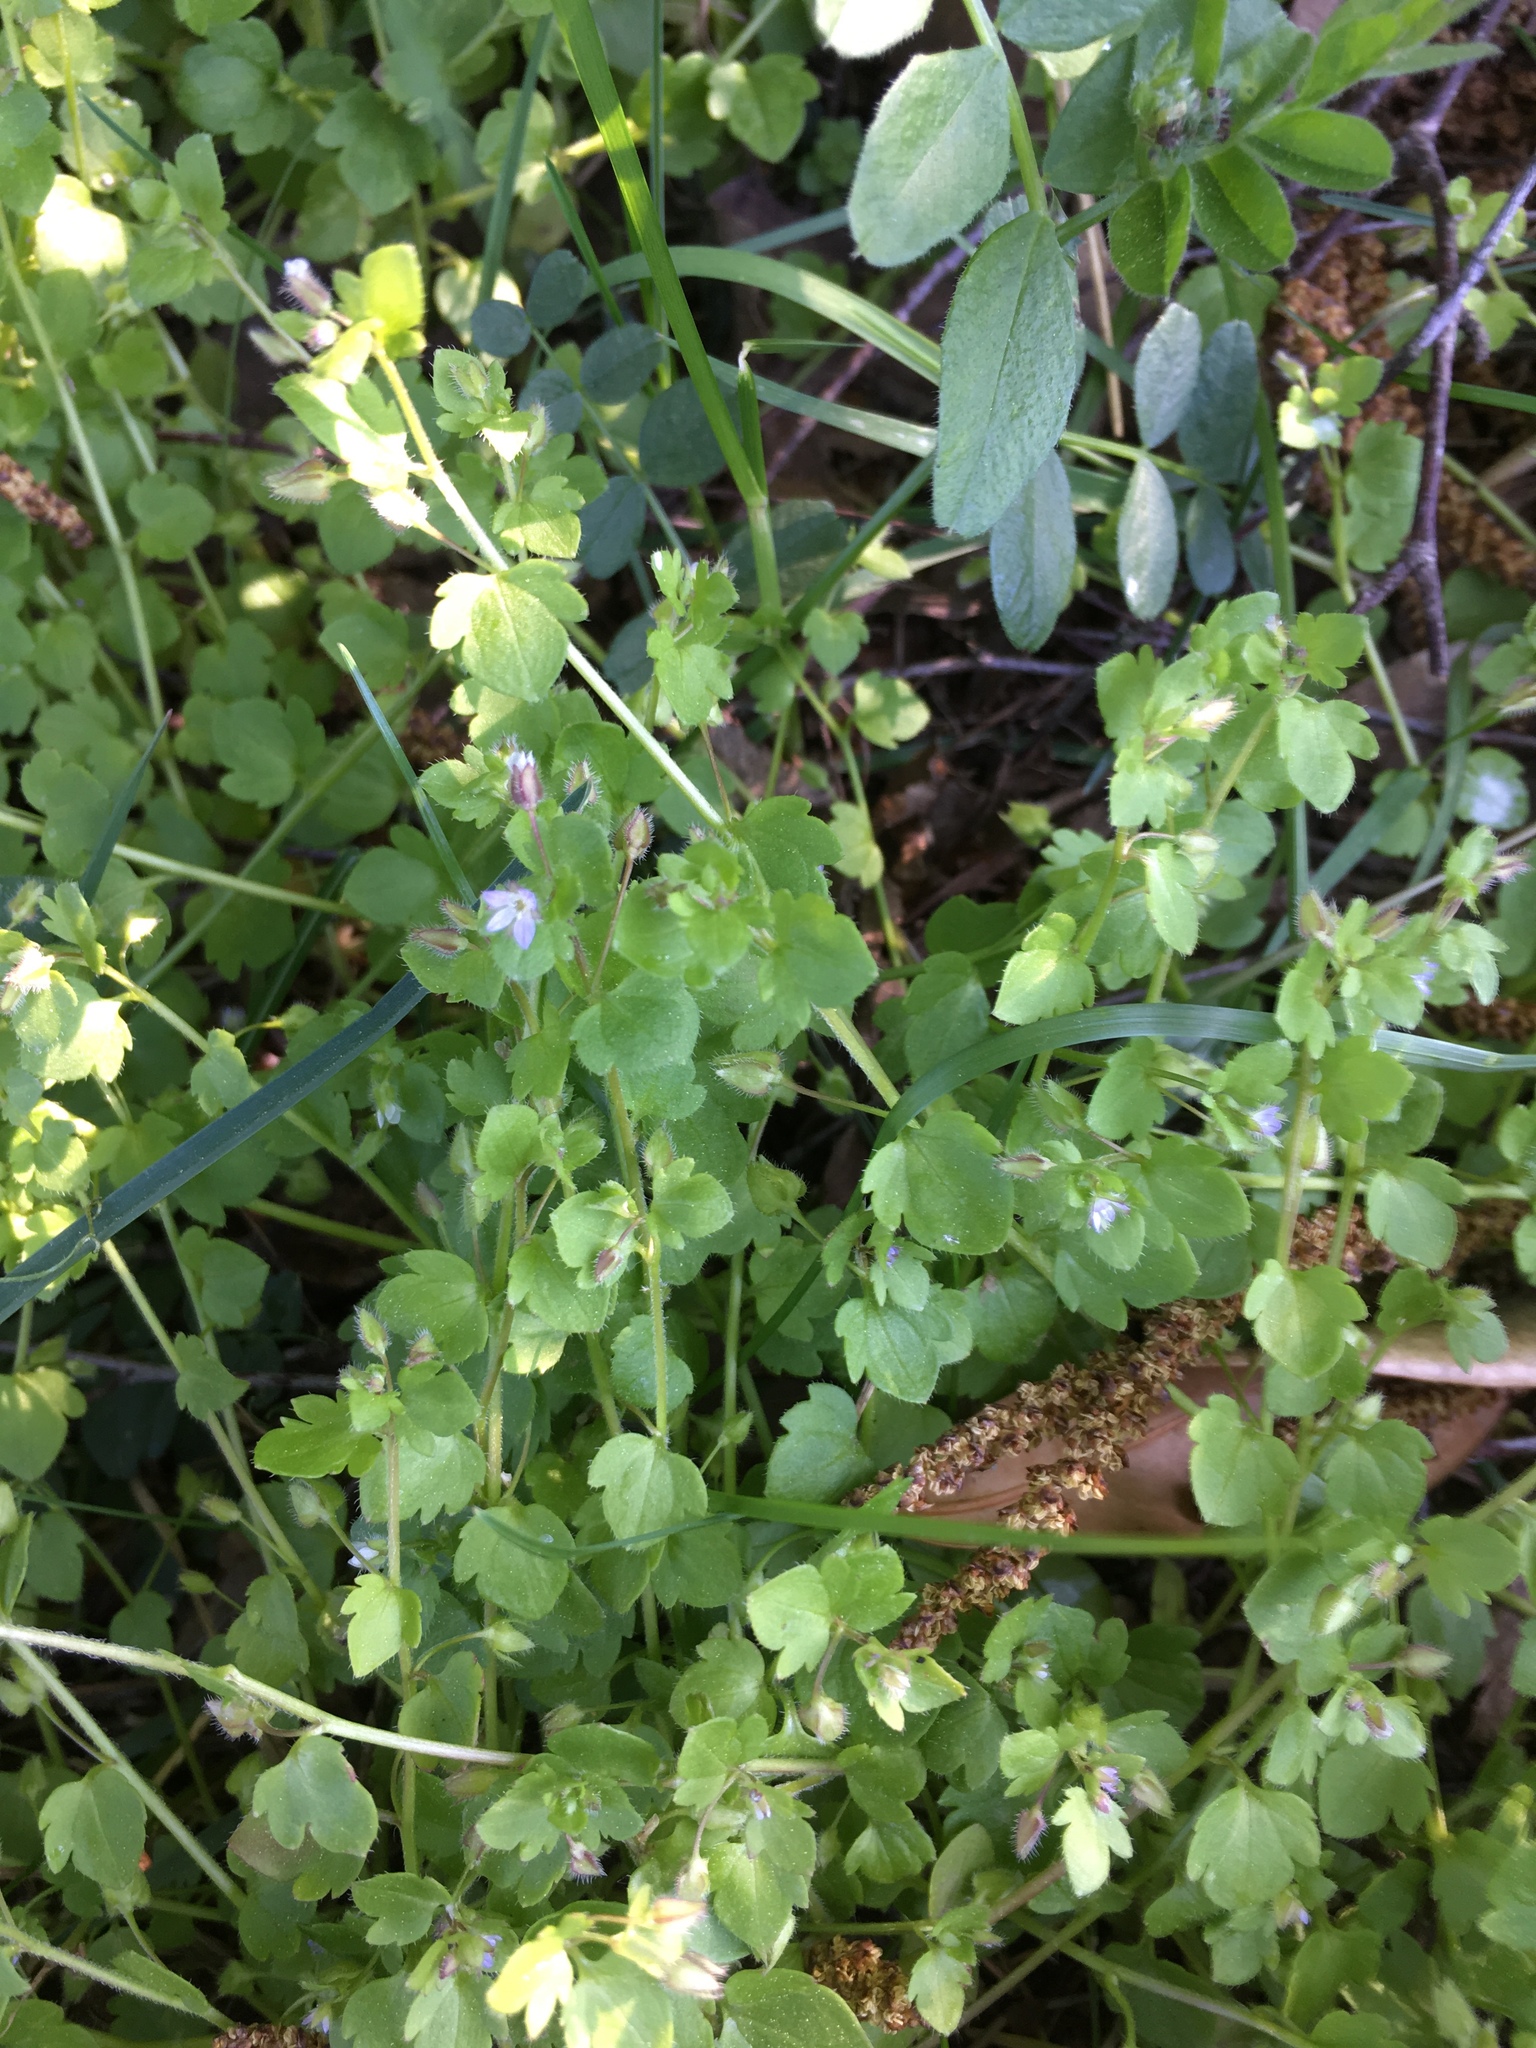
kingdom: Plantae
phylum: Tracheophyta
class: Magnoliopsida
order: Lamiales
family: Plantaginaceae
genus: Veronica
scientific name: Veronica hederifolia
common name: Ivy-leaved speedwell
